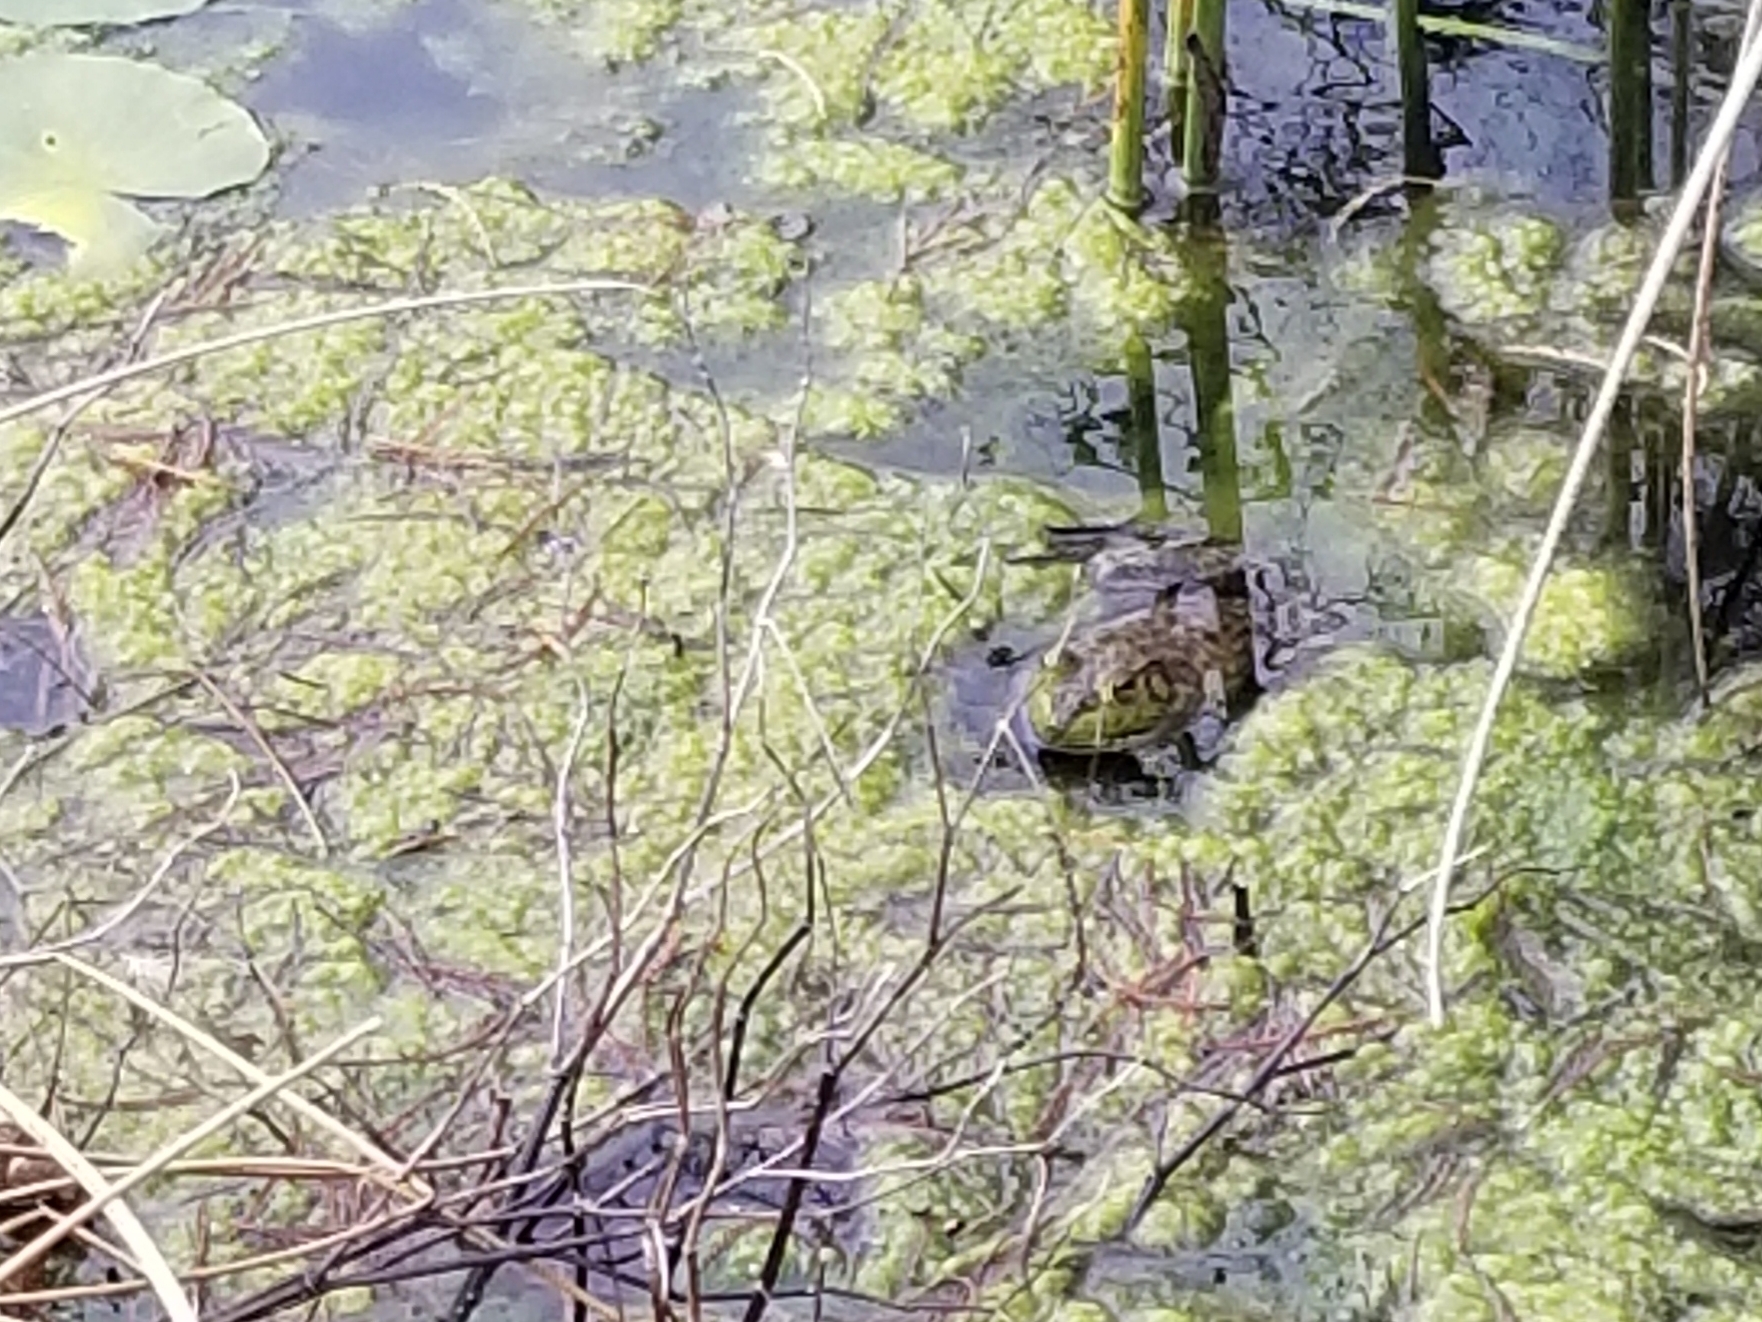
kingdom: Animalia
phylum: Chordata
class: Amphibia
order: Anura
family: Ranidae
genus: Lithobates
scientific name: Lithobates catesbeianus
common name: American bullfrog
